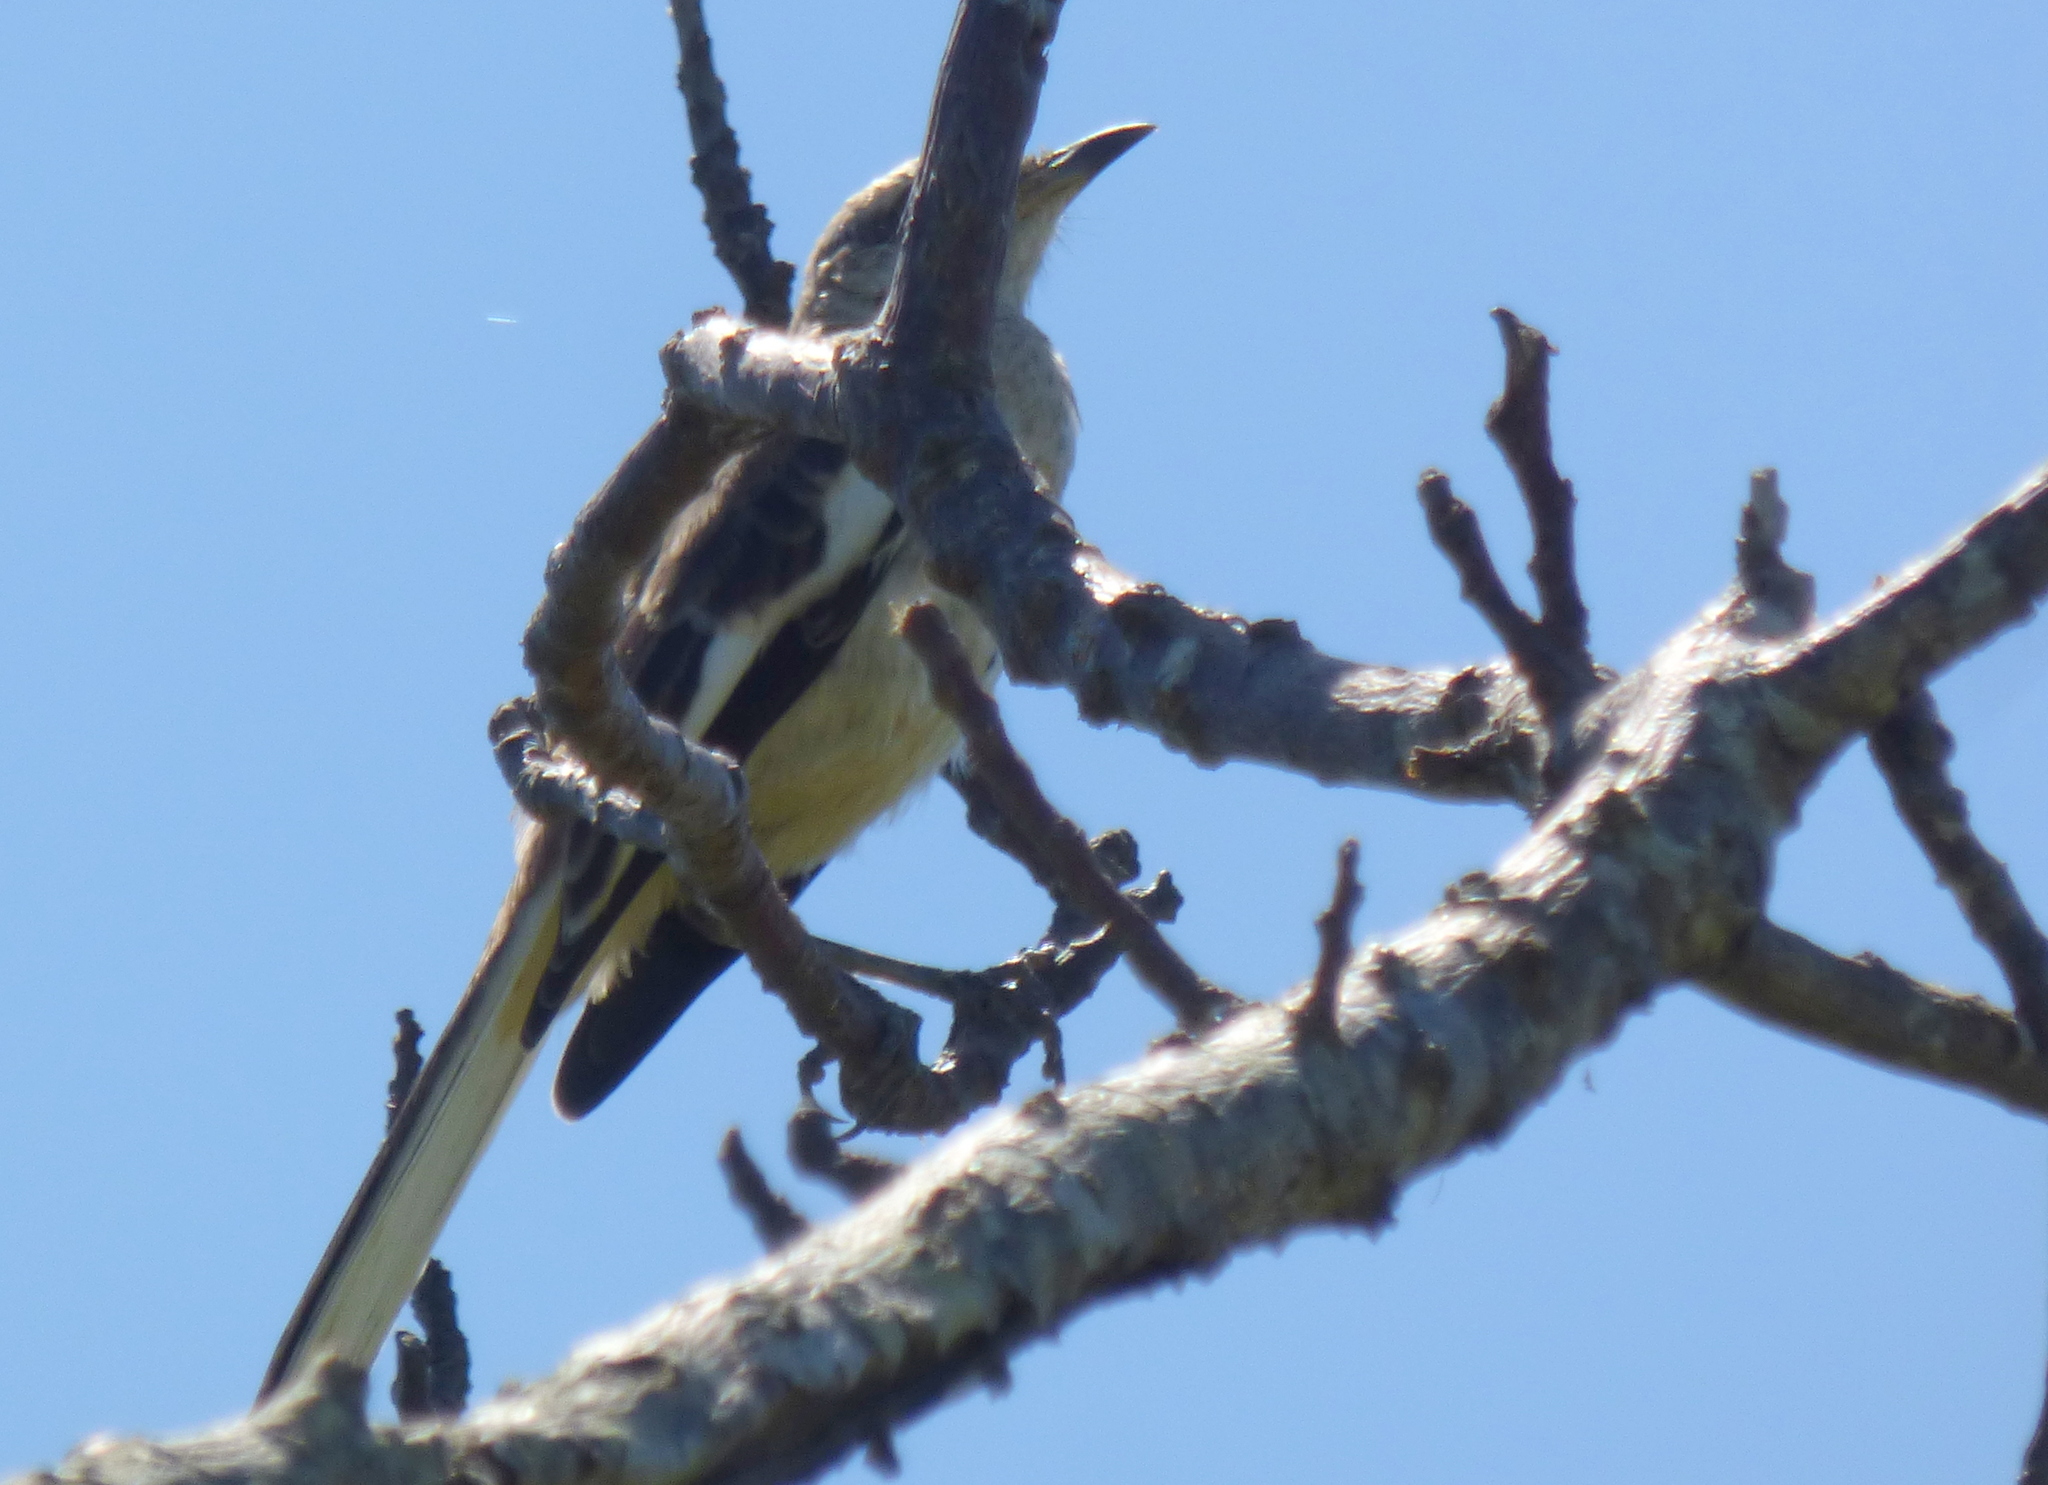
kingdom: Animalia
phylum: Chordata
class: Aves
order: Passeriformes
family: Mimidae
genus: Mimus
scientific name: Mimus triurus
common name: White-banded mockingbird
